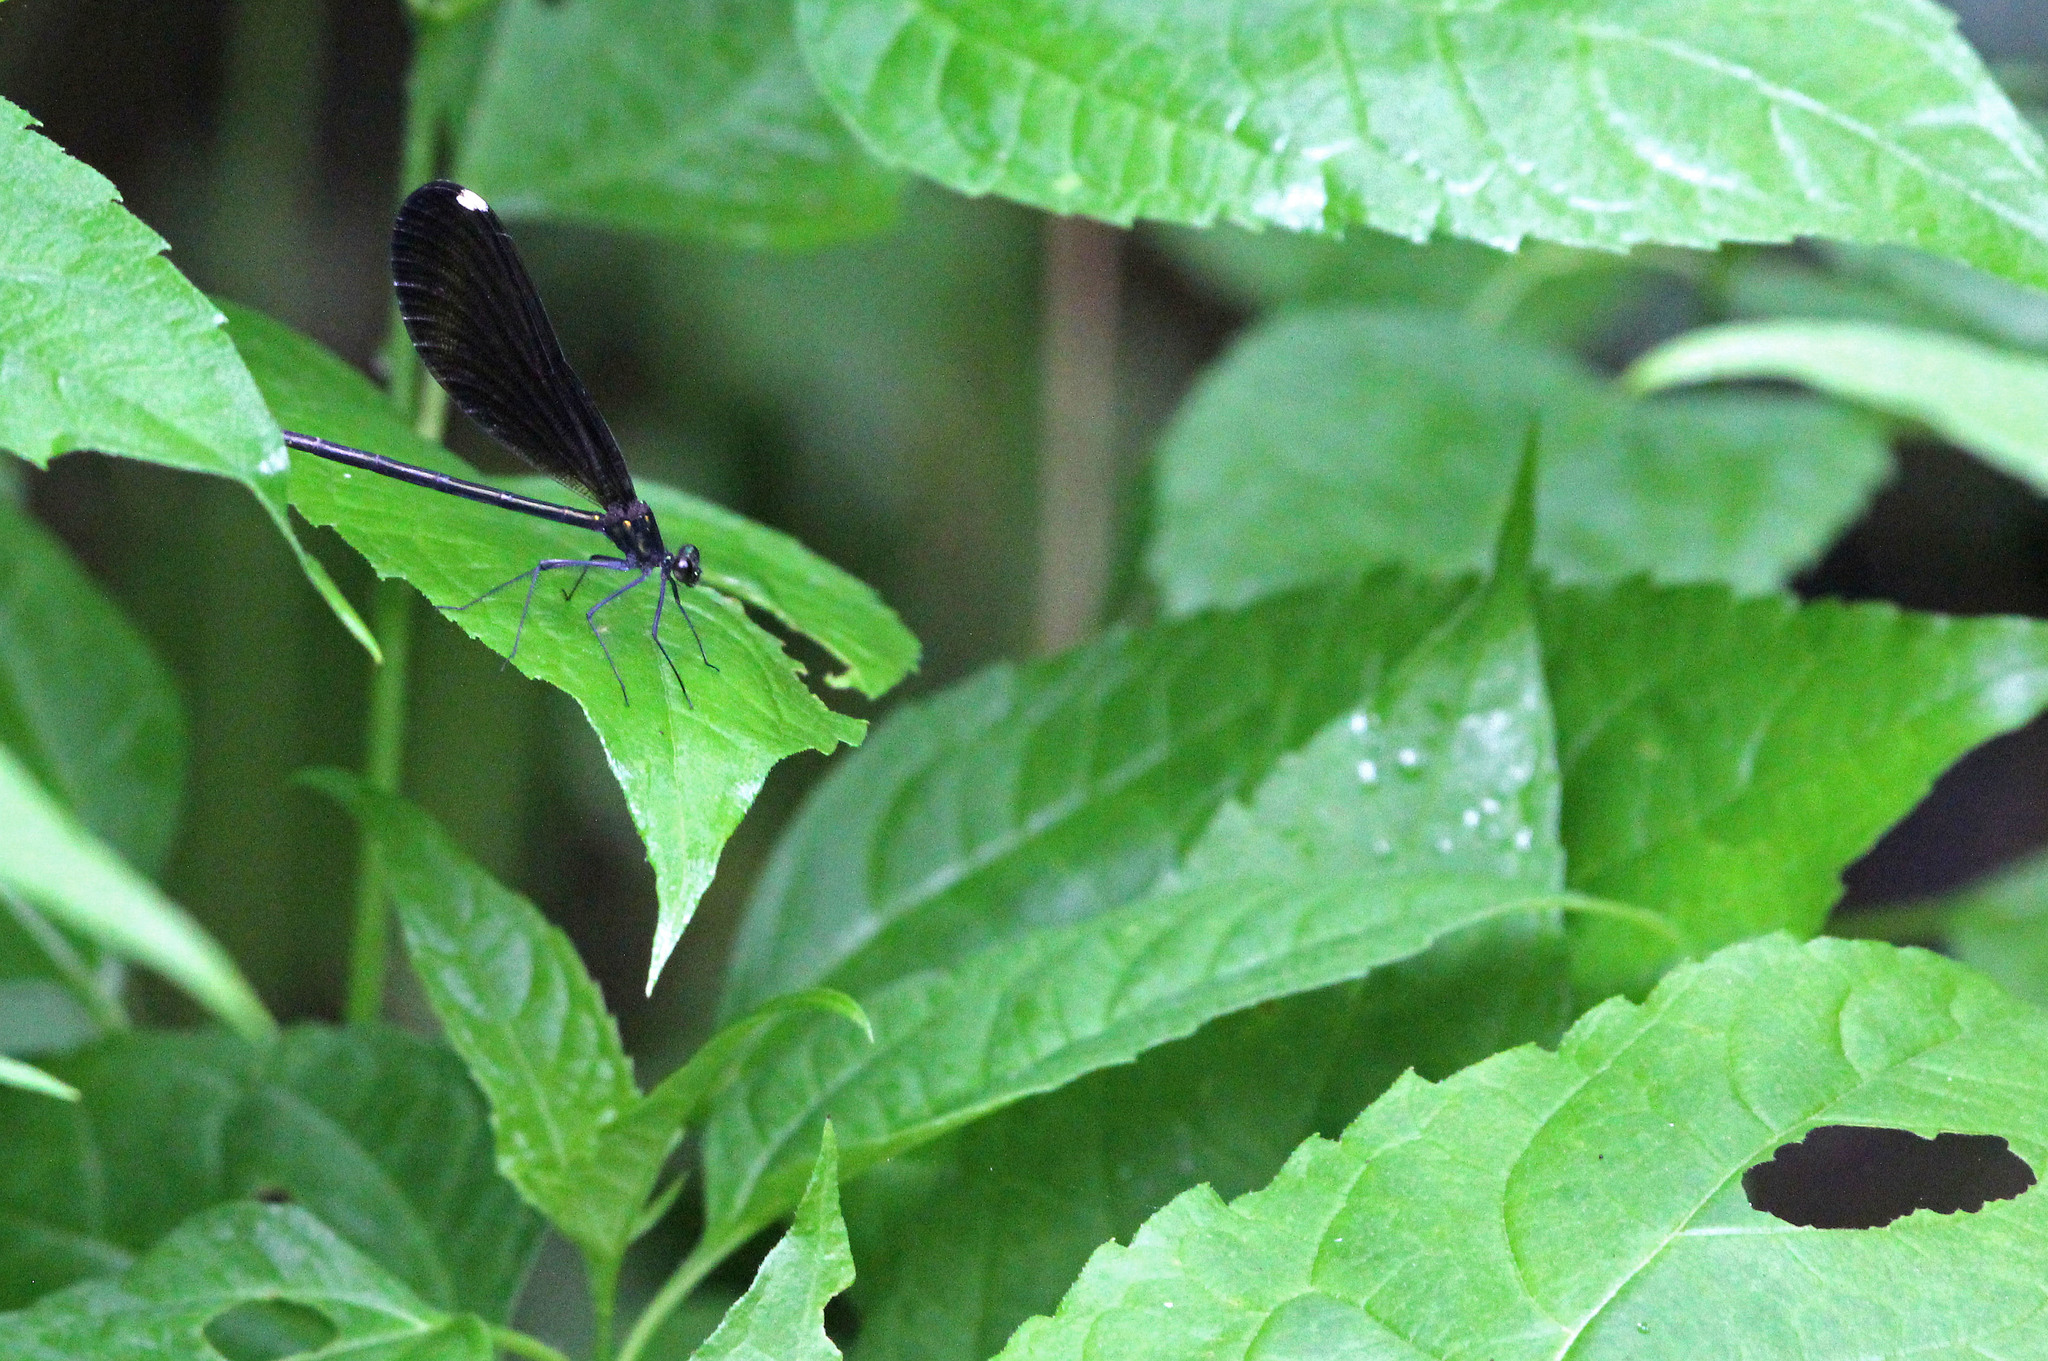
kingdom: Animalia
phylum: Arthropoda
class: Insecta
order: Odonata
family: Calopterygidae
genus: Calopteryx
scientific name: Calopteryx maculata
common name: Ebony jewelwing
